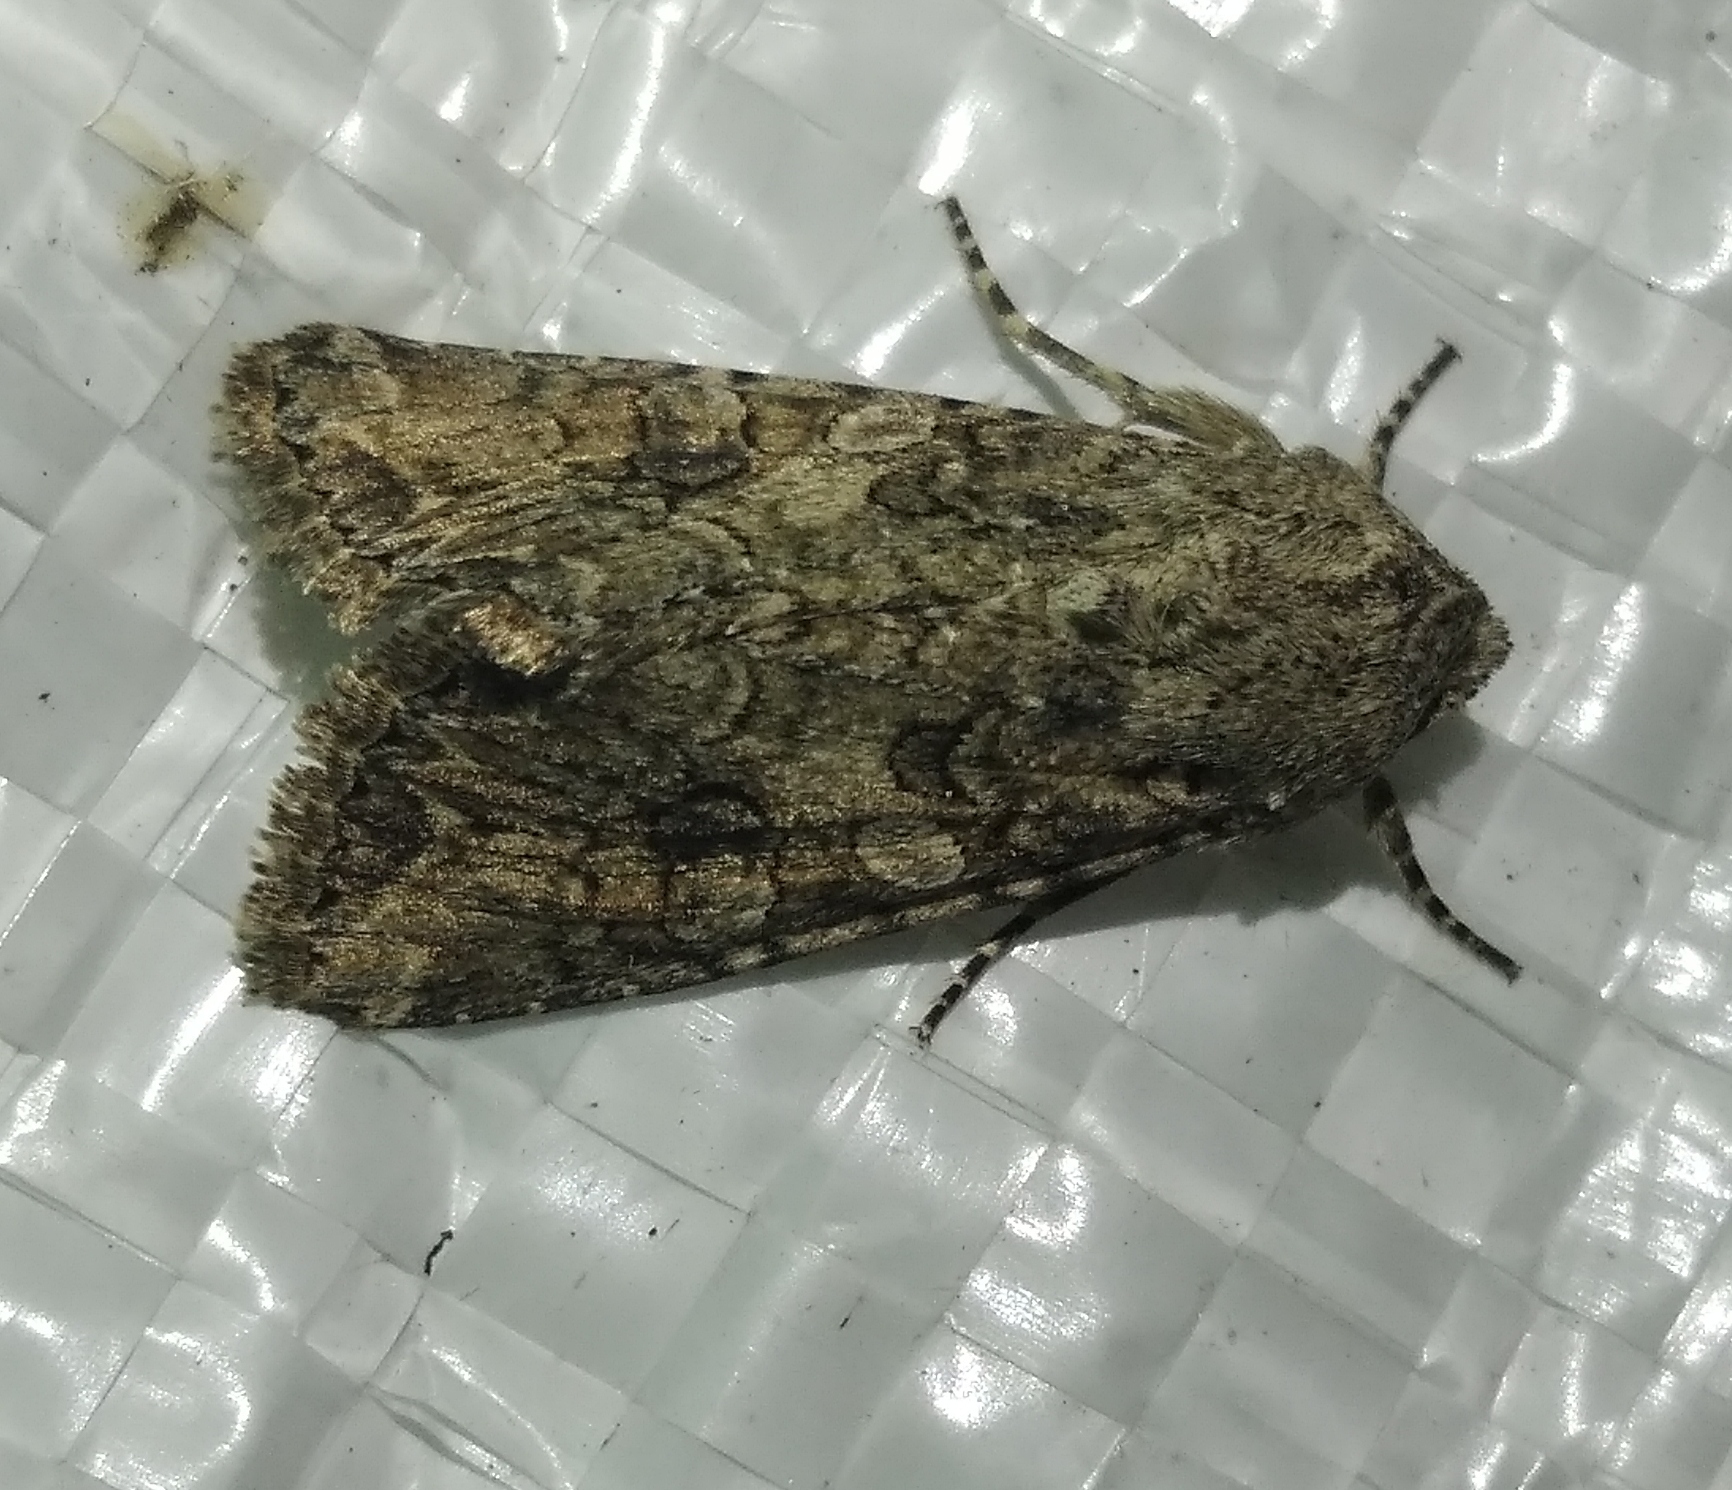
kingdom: Animalia
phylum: Arthropoda
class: Insecta
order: Lepidoptera
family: Noctuidae
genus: Anarta
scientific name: Anarta trifolii
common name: Clover cutworm moth
